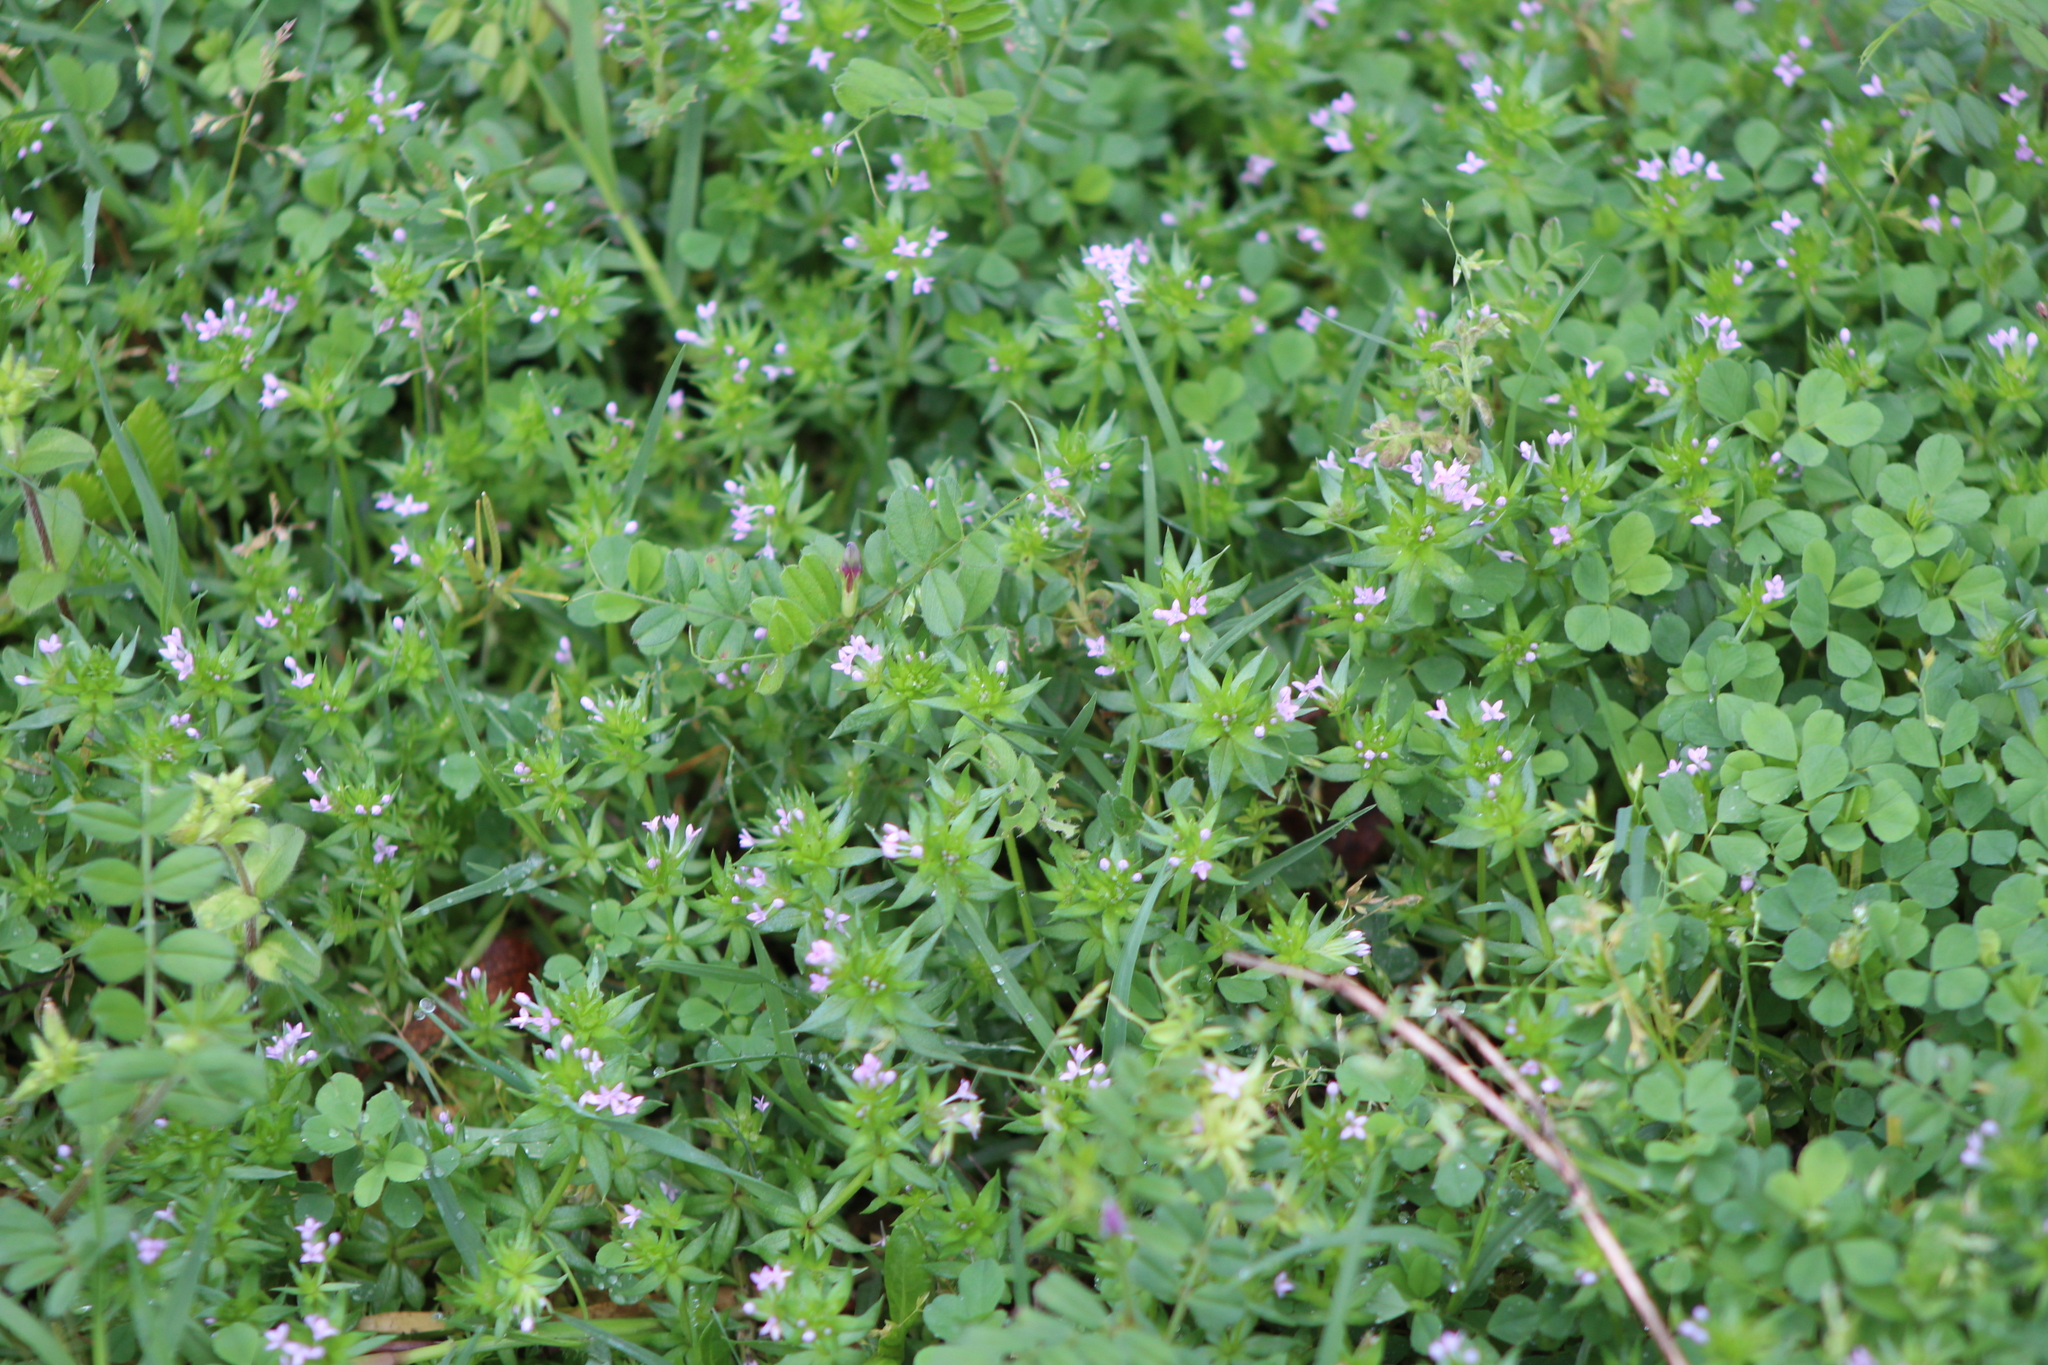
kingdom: Plantae
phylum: Tracheophyta
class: Magnoliopsida
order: Gentianales
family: Rubiaceae
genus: Sherardia
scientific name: Sherardia arvensis
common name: Field madder
